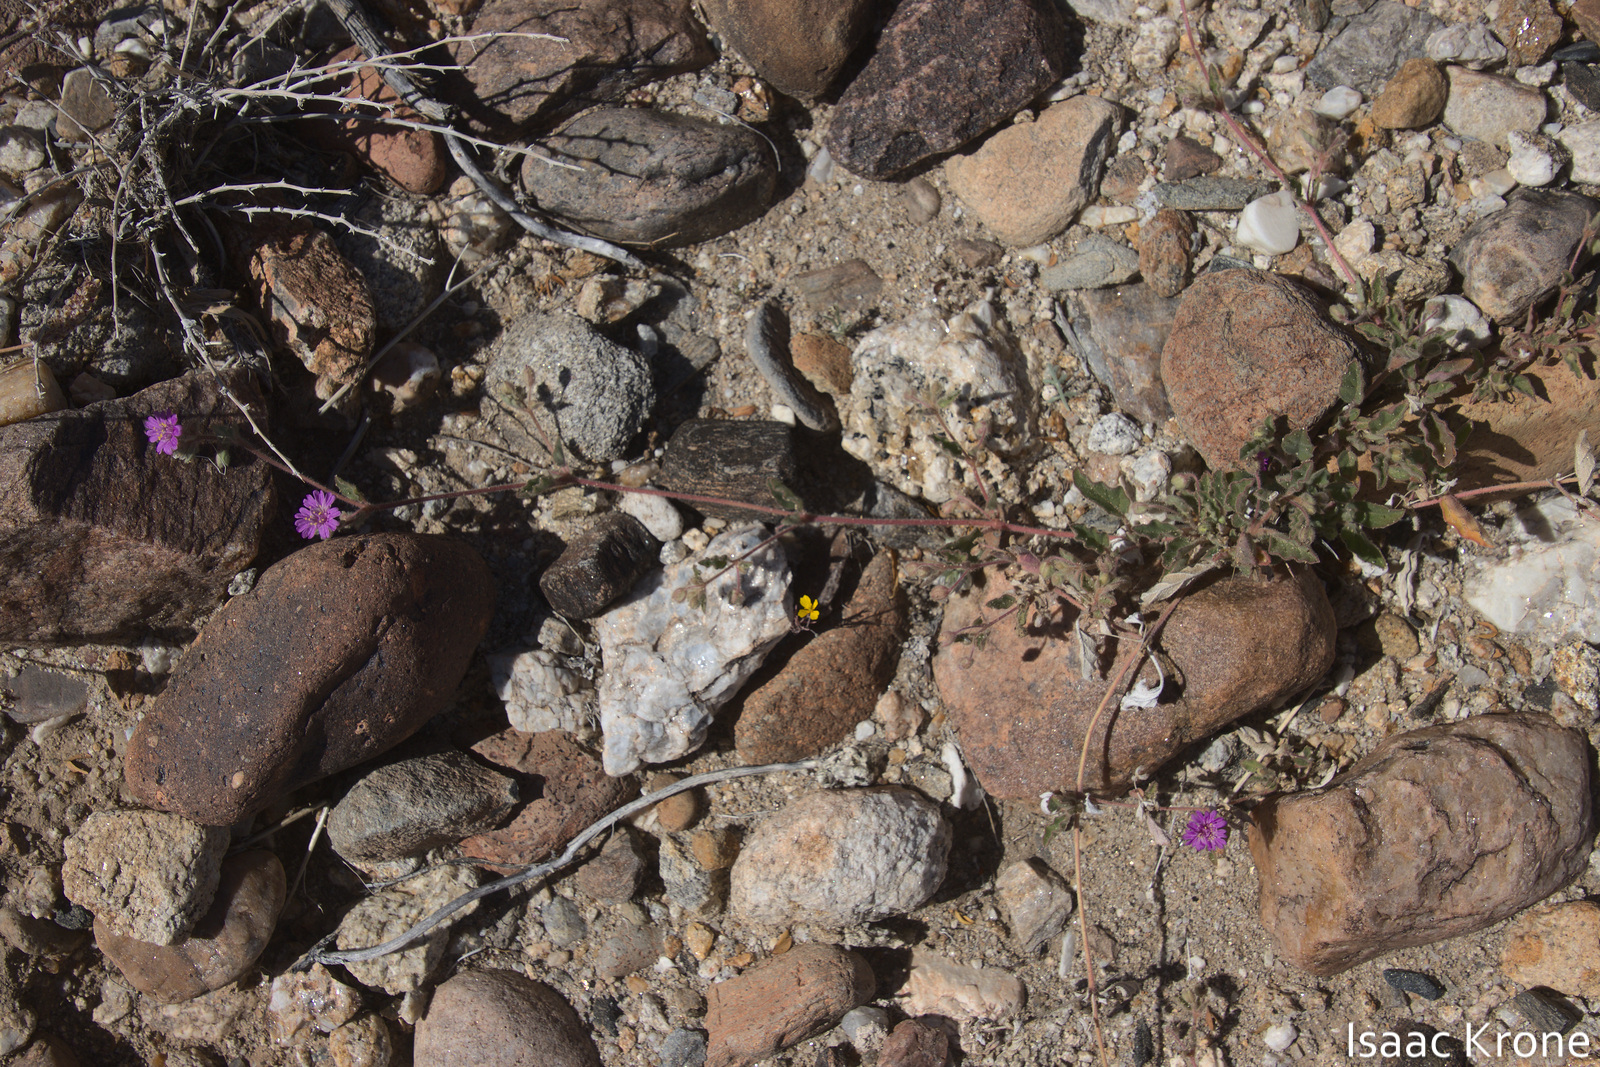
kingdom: Plantae
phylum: Tracheophyta
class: Magnoliopsida
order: Caryophyllales
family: Nyctaginaceae
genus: Allionia
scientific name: Allionia incarnata
